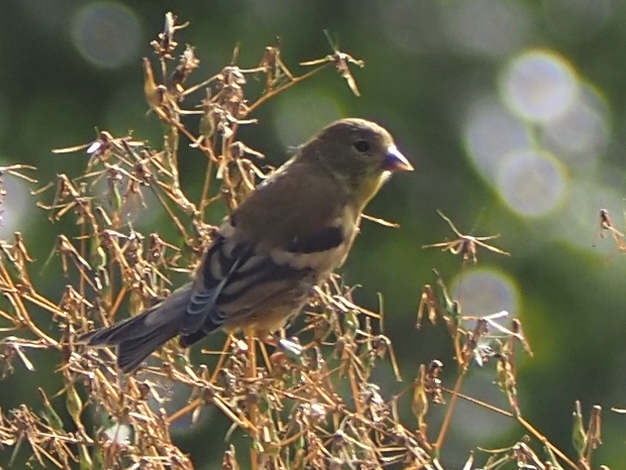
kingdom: Animalia
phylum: Chordata
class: Aves
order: Passeriformes
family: Fringillidae
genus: Spinus
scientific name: Spinus tristis
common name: American goldfinch
